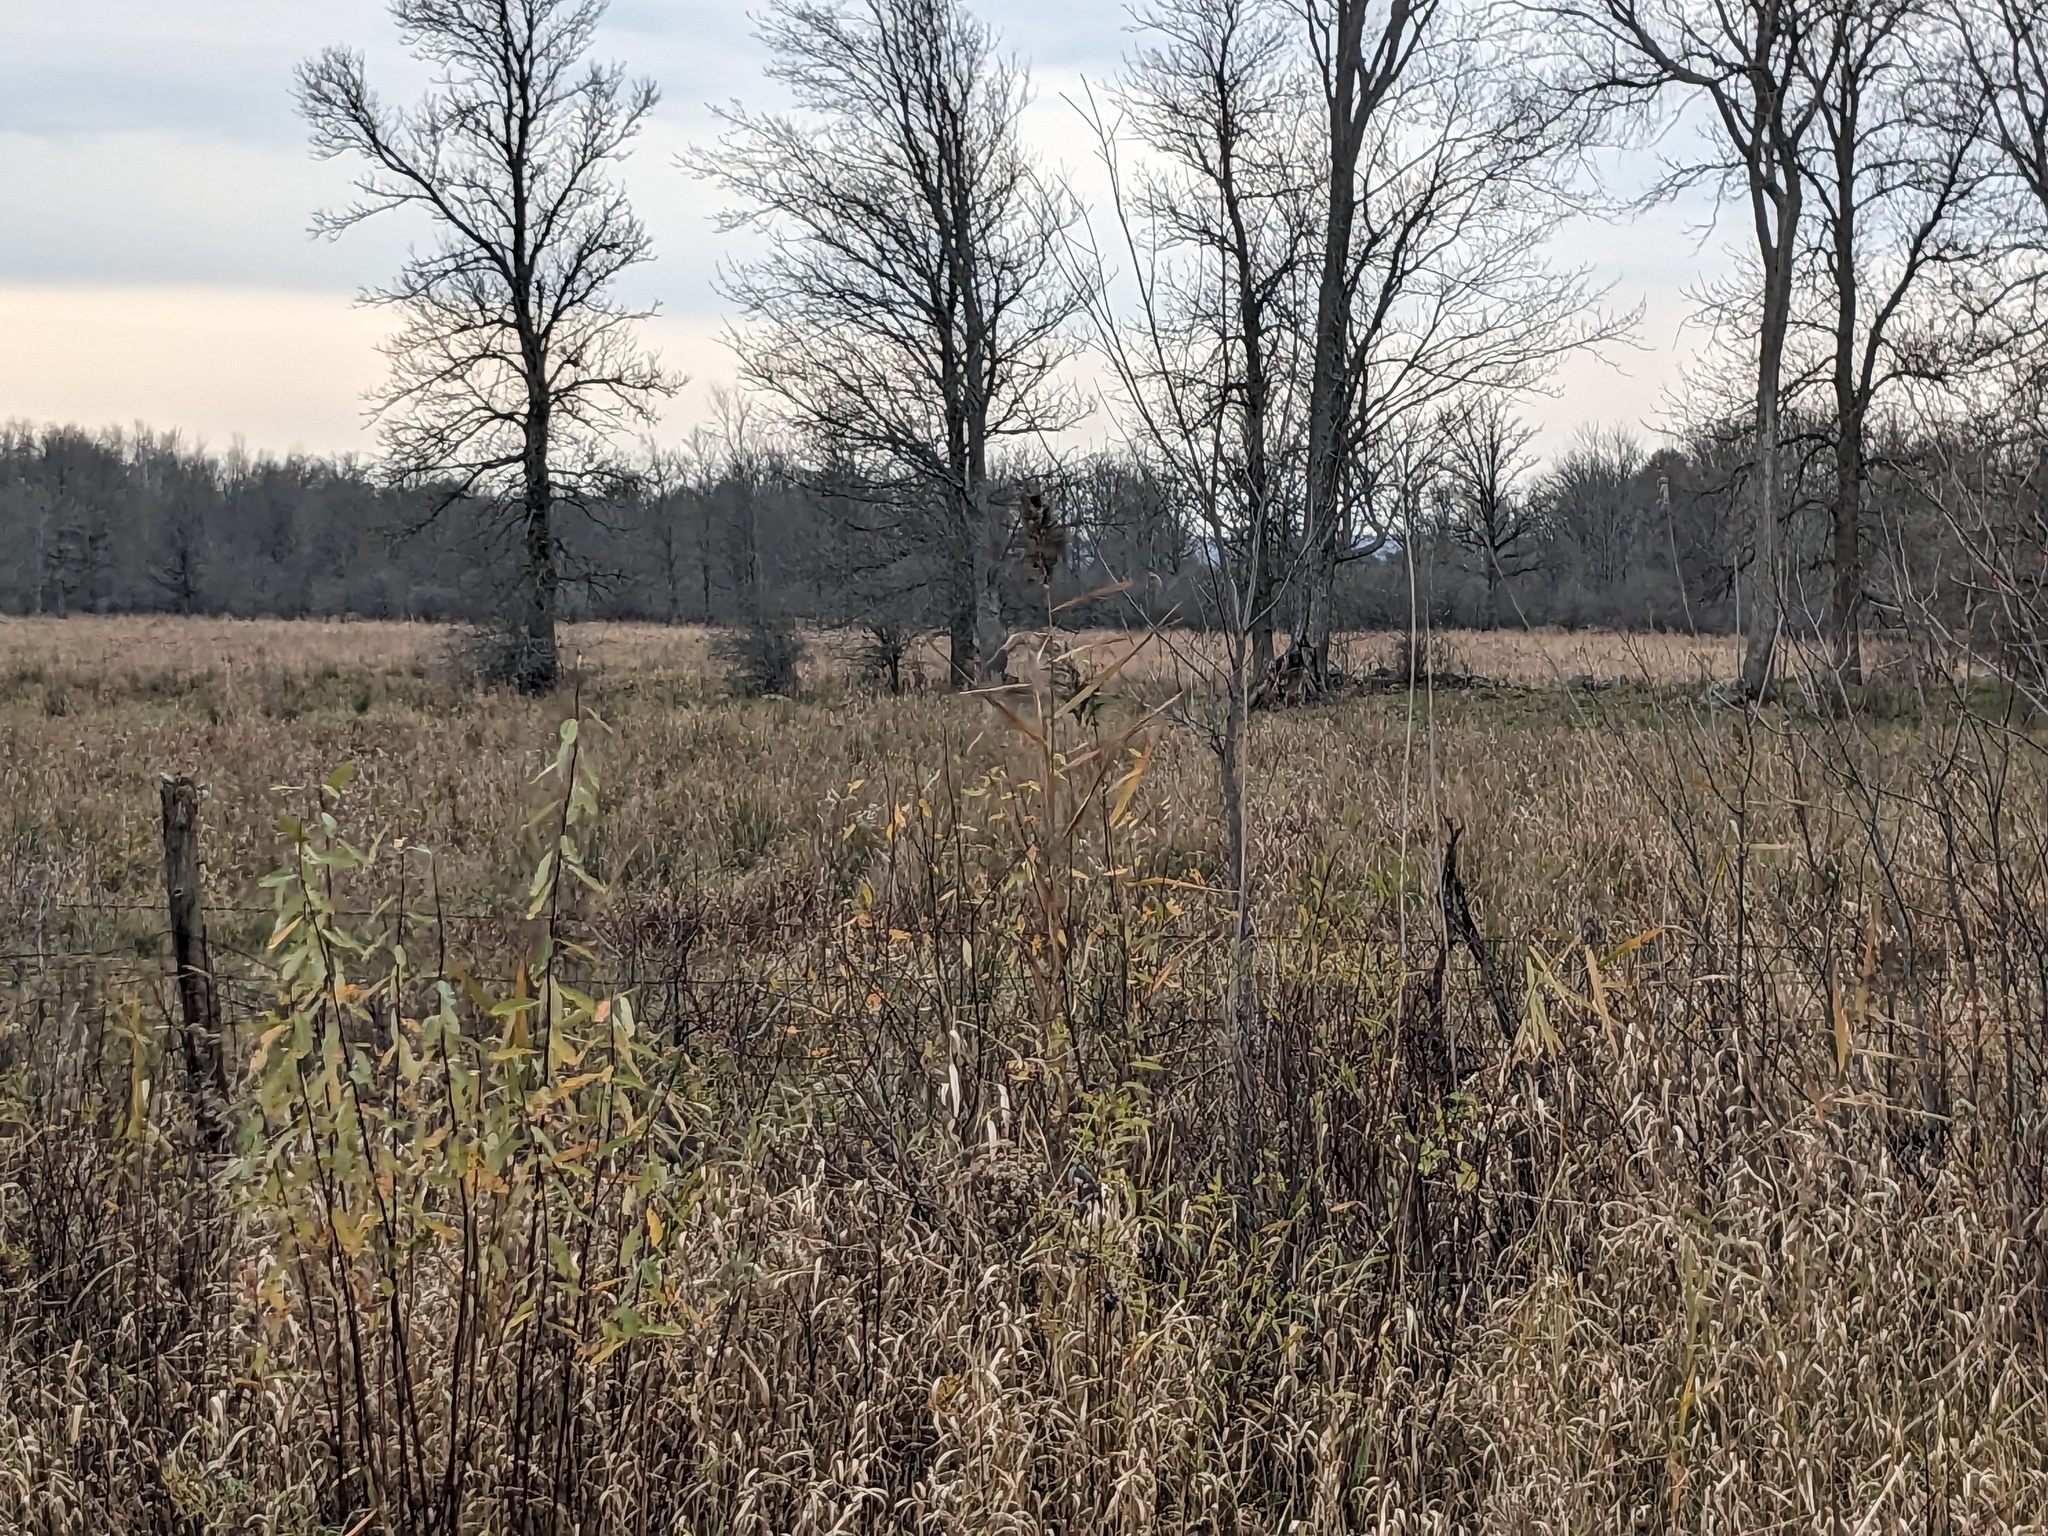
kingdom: Plantae
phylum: Tracheophyta
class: Liliopsida
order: Poales
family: Poaceae
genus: Phragmites
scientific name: Phragmites australis
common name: Common reed
